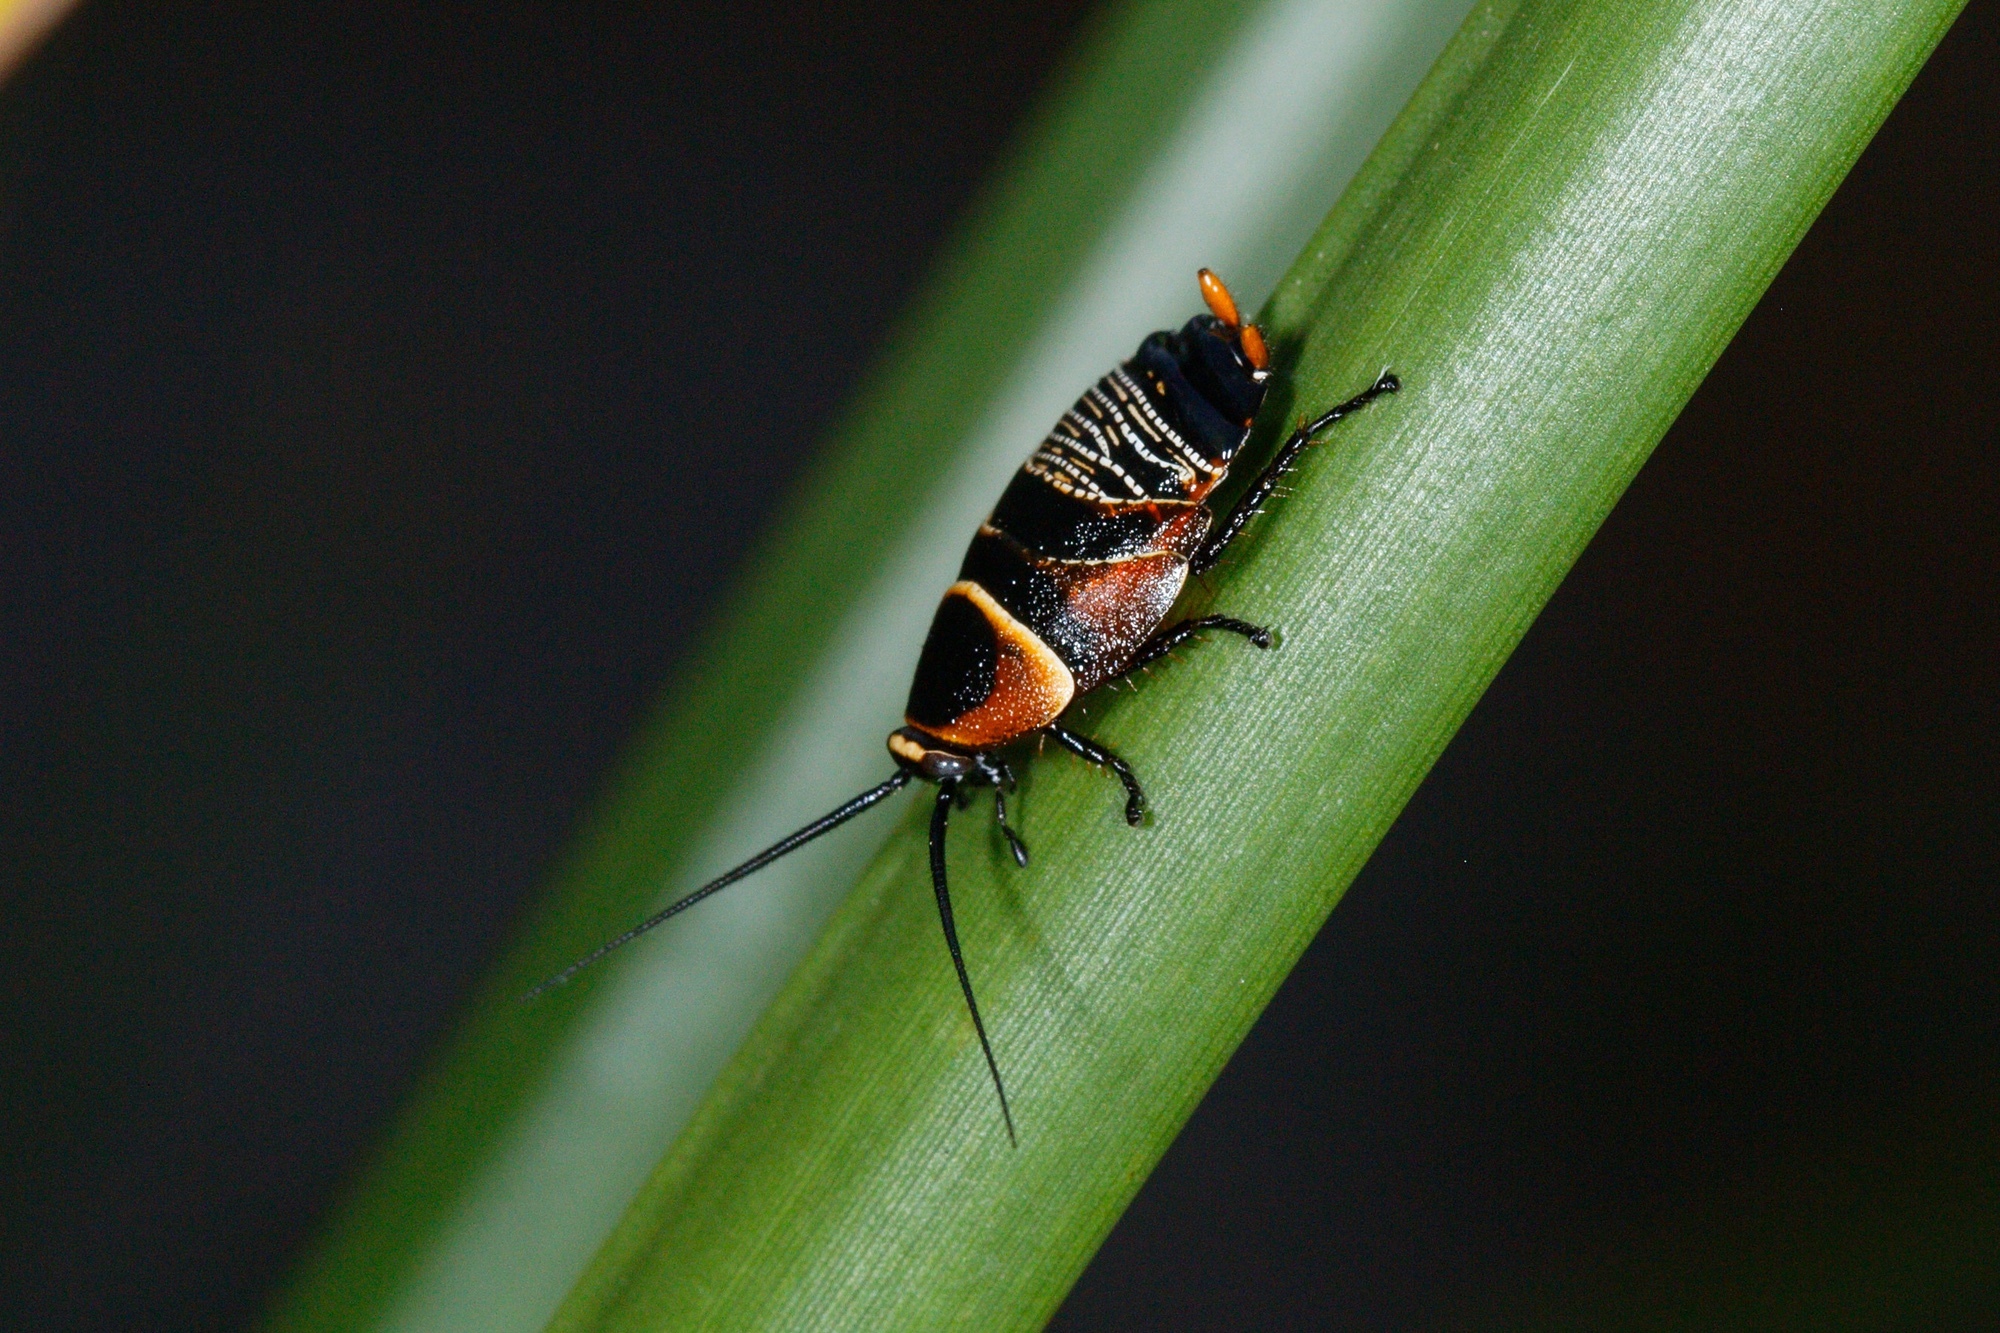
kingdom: Animalia
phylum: Arthropoda
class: Insecta
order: Blattodea
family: Ectobiidae
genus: Ellipsidion
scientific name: Ellipsidion australe
